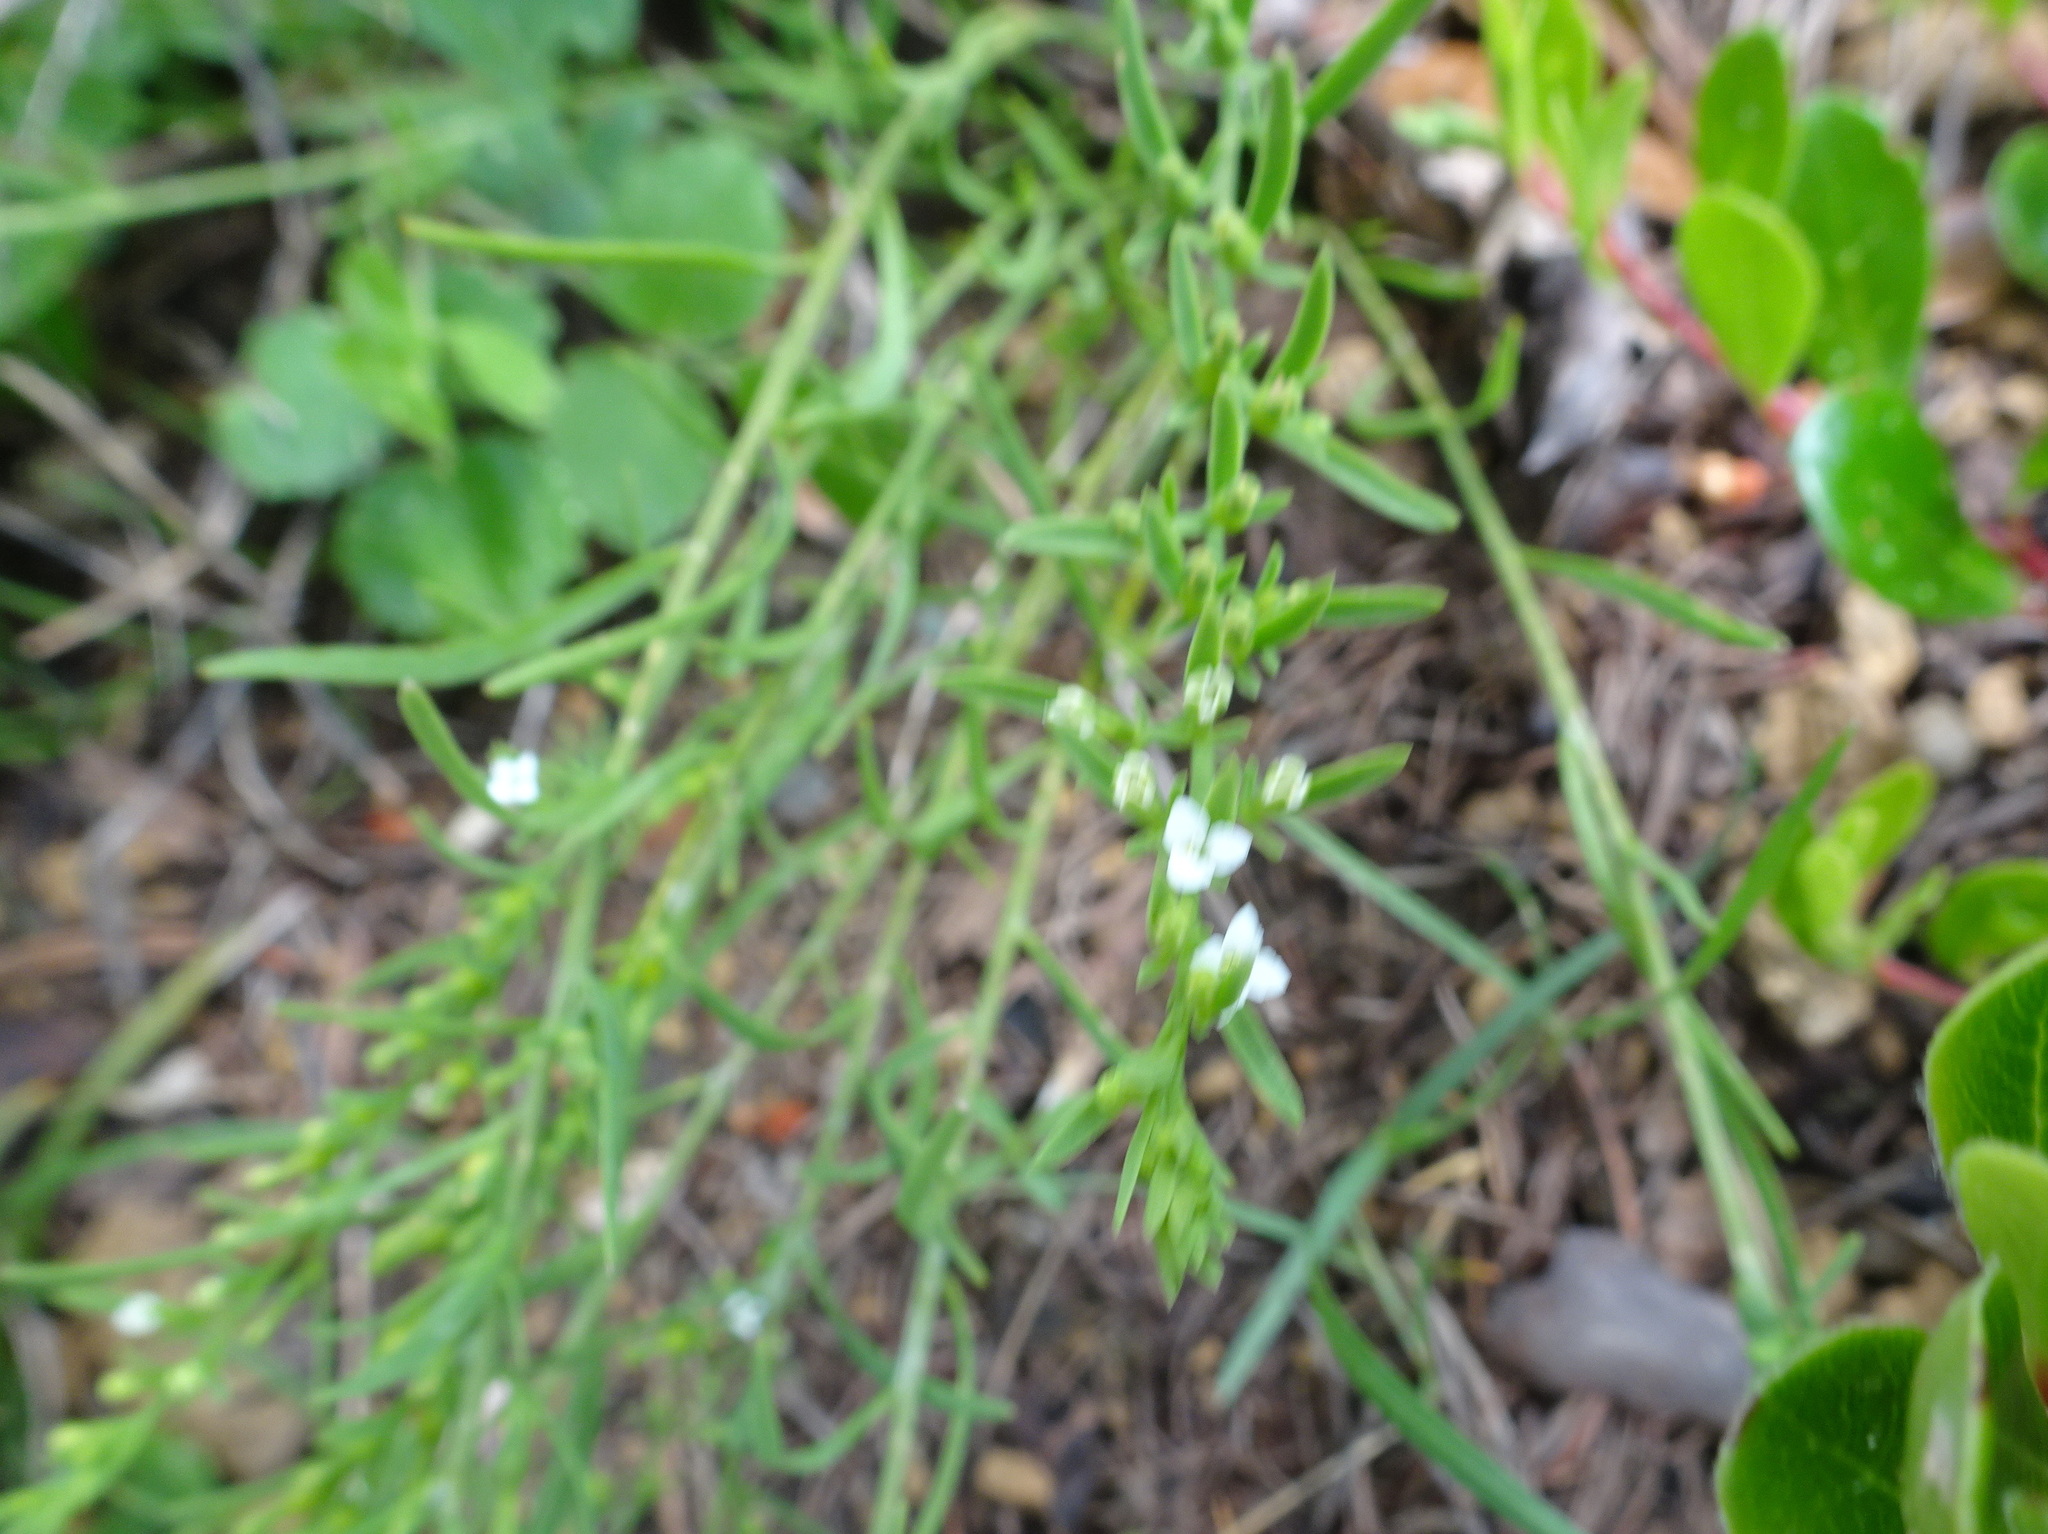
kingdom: Plantae
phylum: Tracheophyta
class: Magnoliopsida
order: Santalales
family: Thesiaceae
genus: Thesium
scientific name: Thesium alpinum
